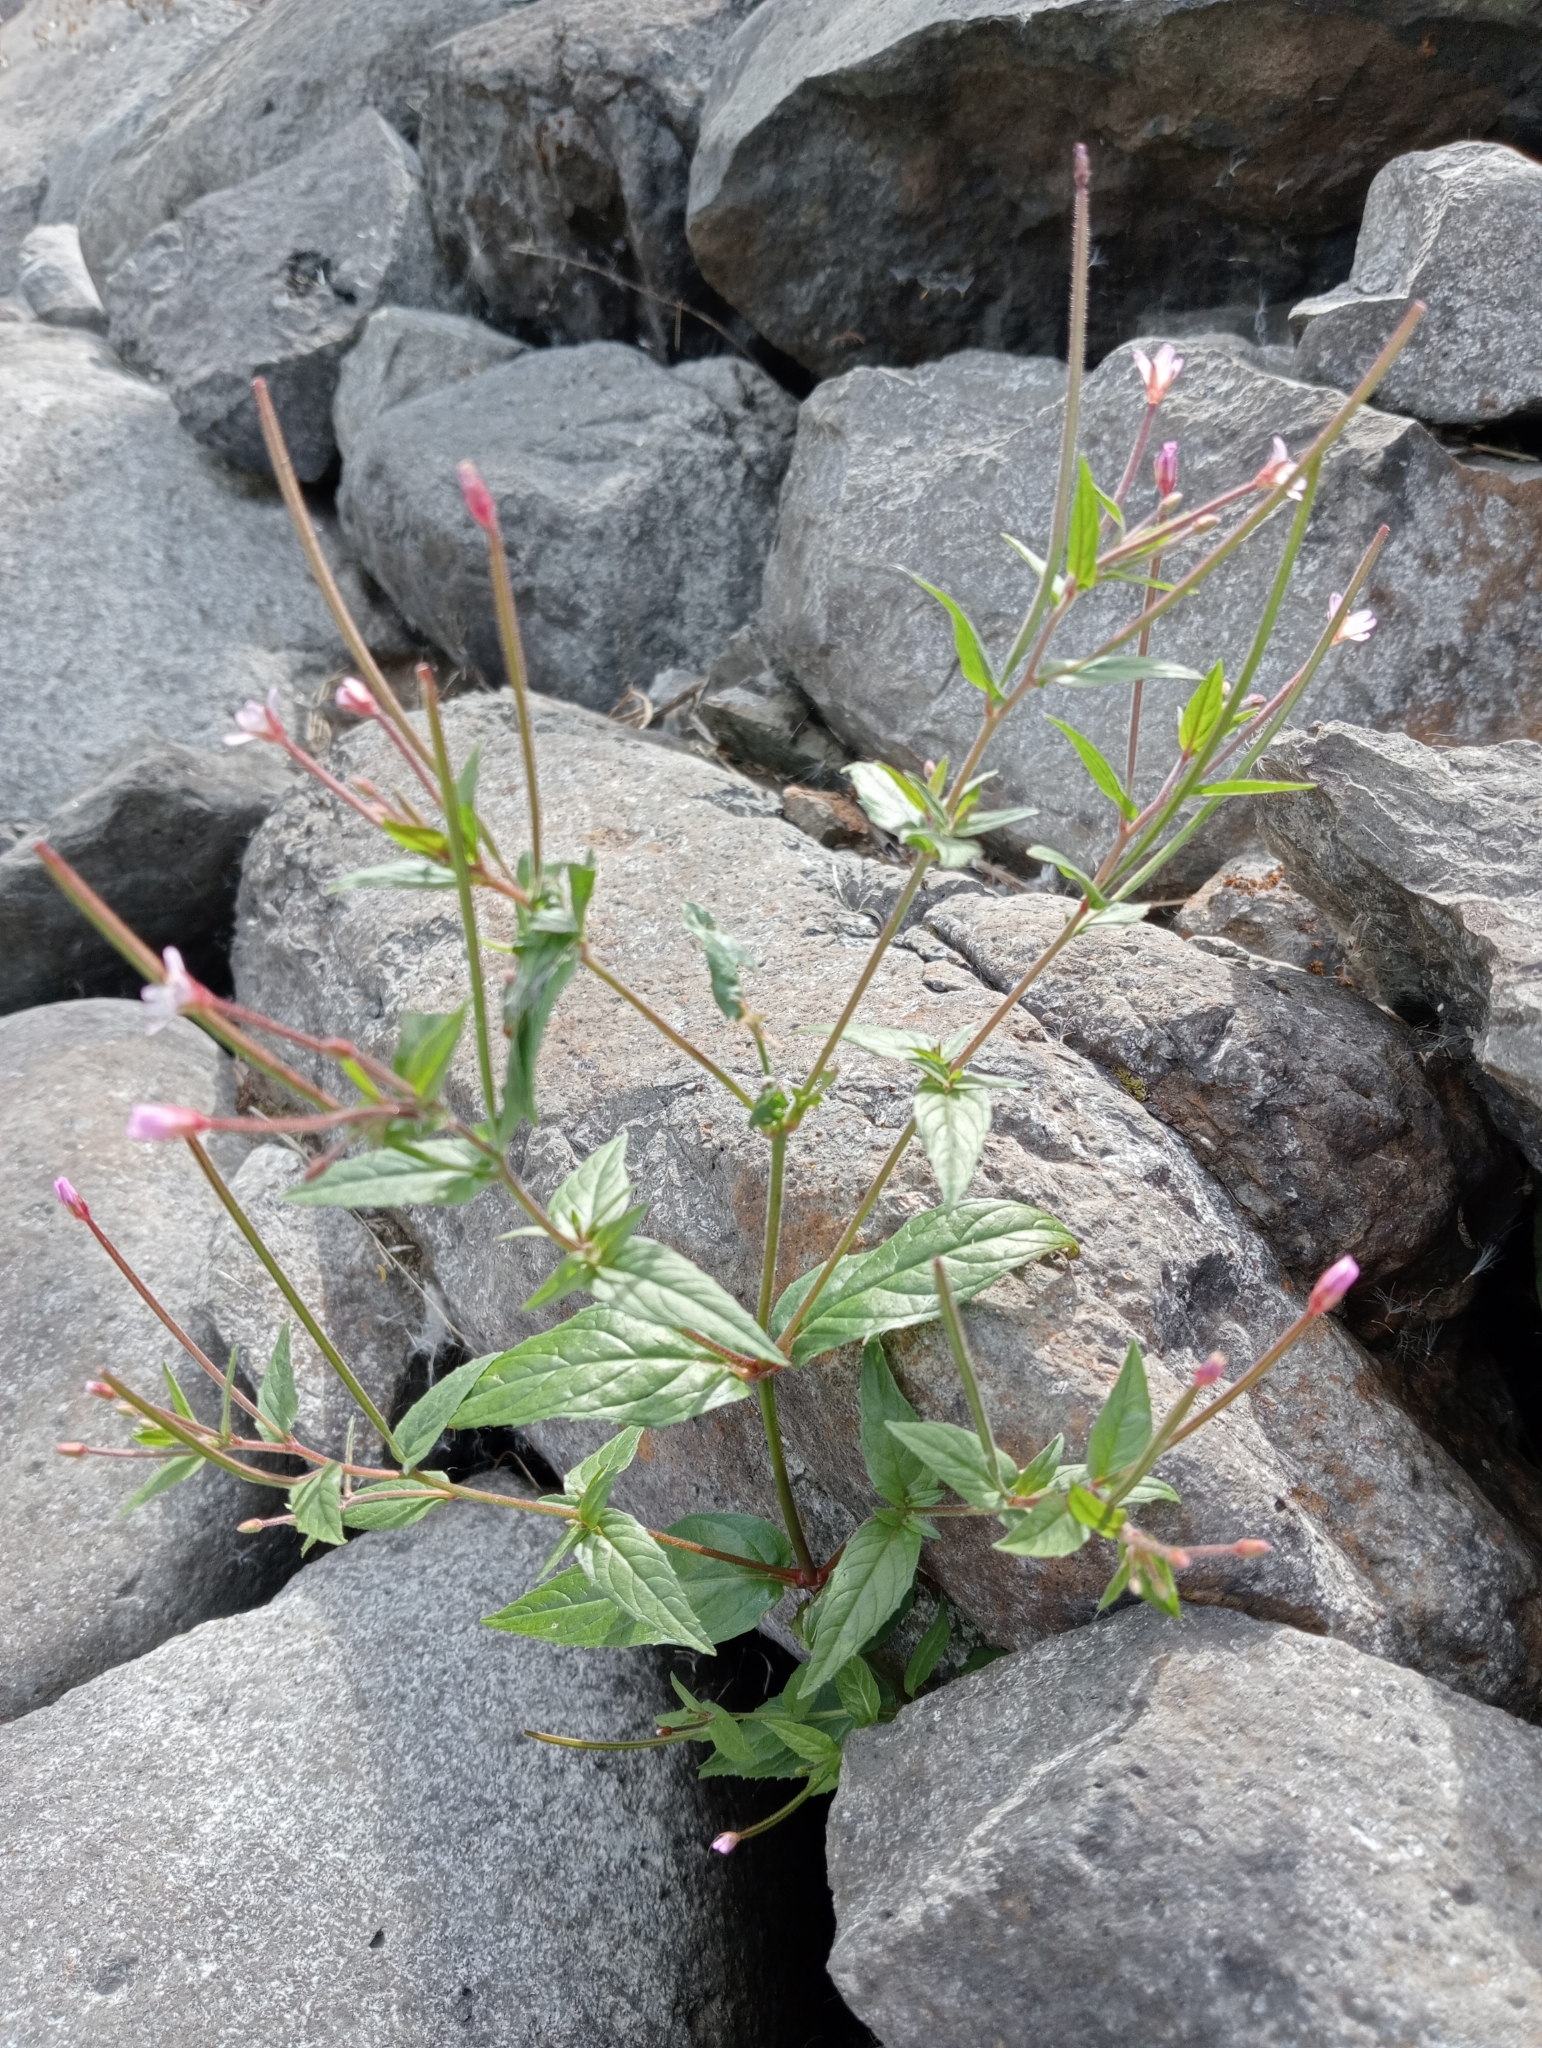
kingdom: Plantae
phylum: Tracheophyta
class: Magnoliopsida
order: Myrtales
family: Onagraceae
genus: Epilobium
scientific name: Epilobium ciliatum
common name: American willowherb
